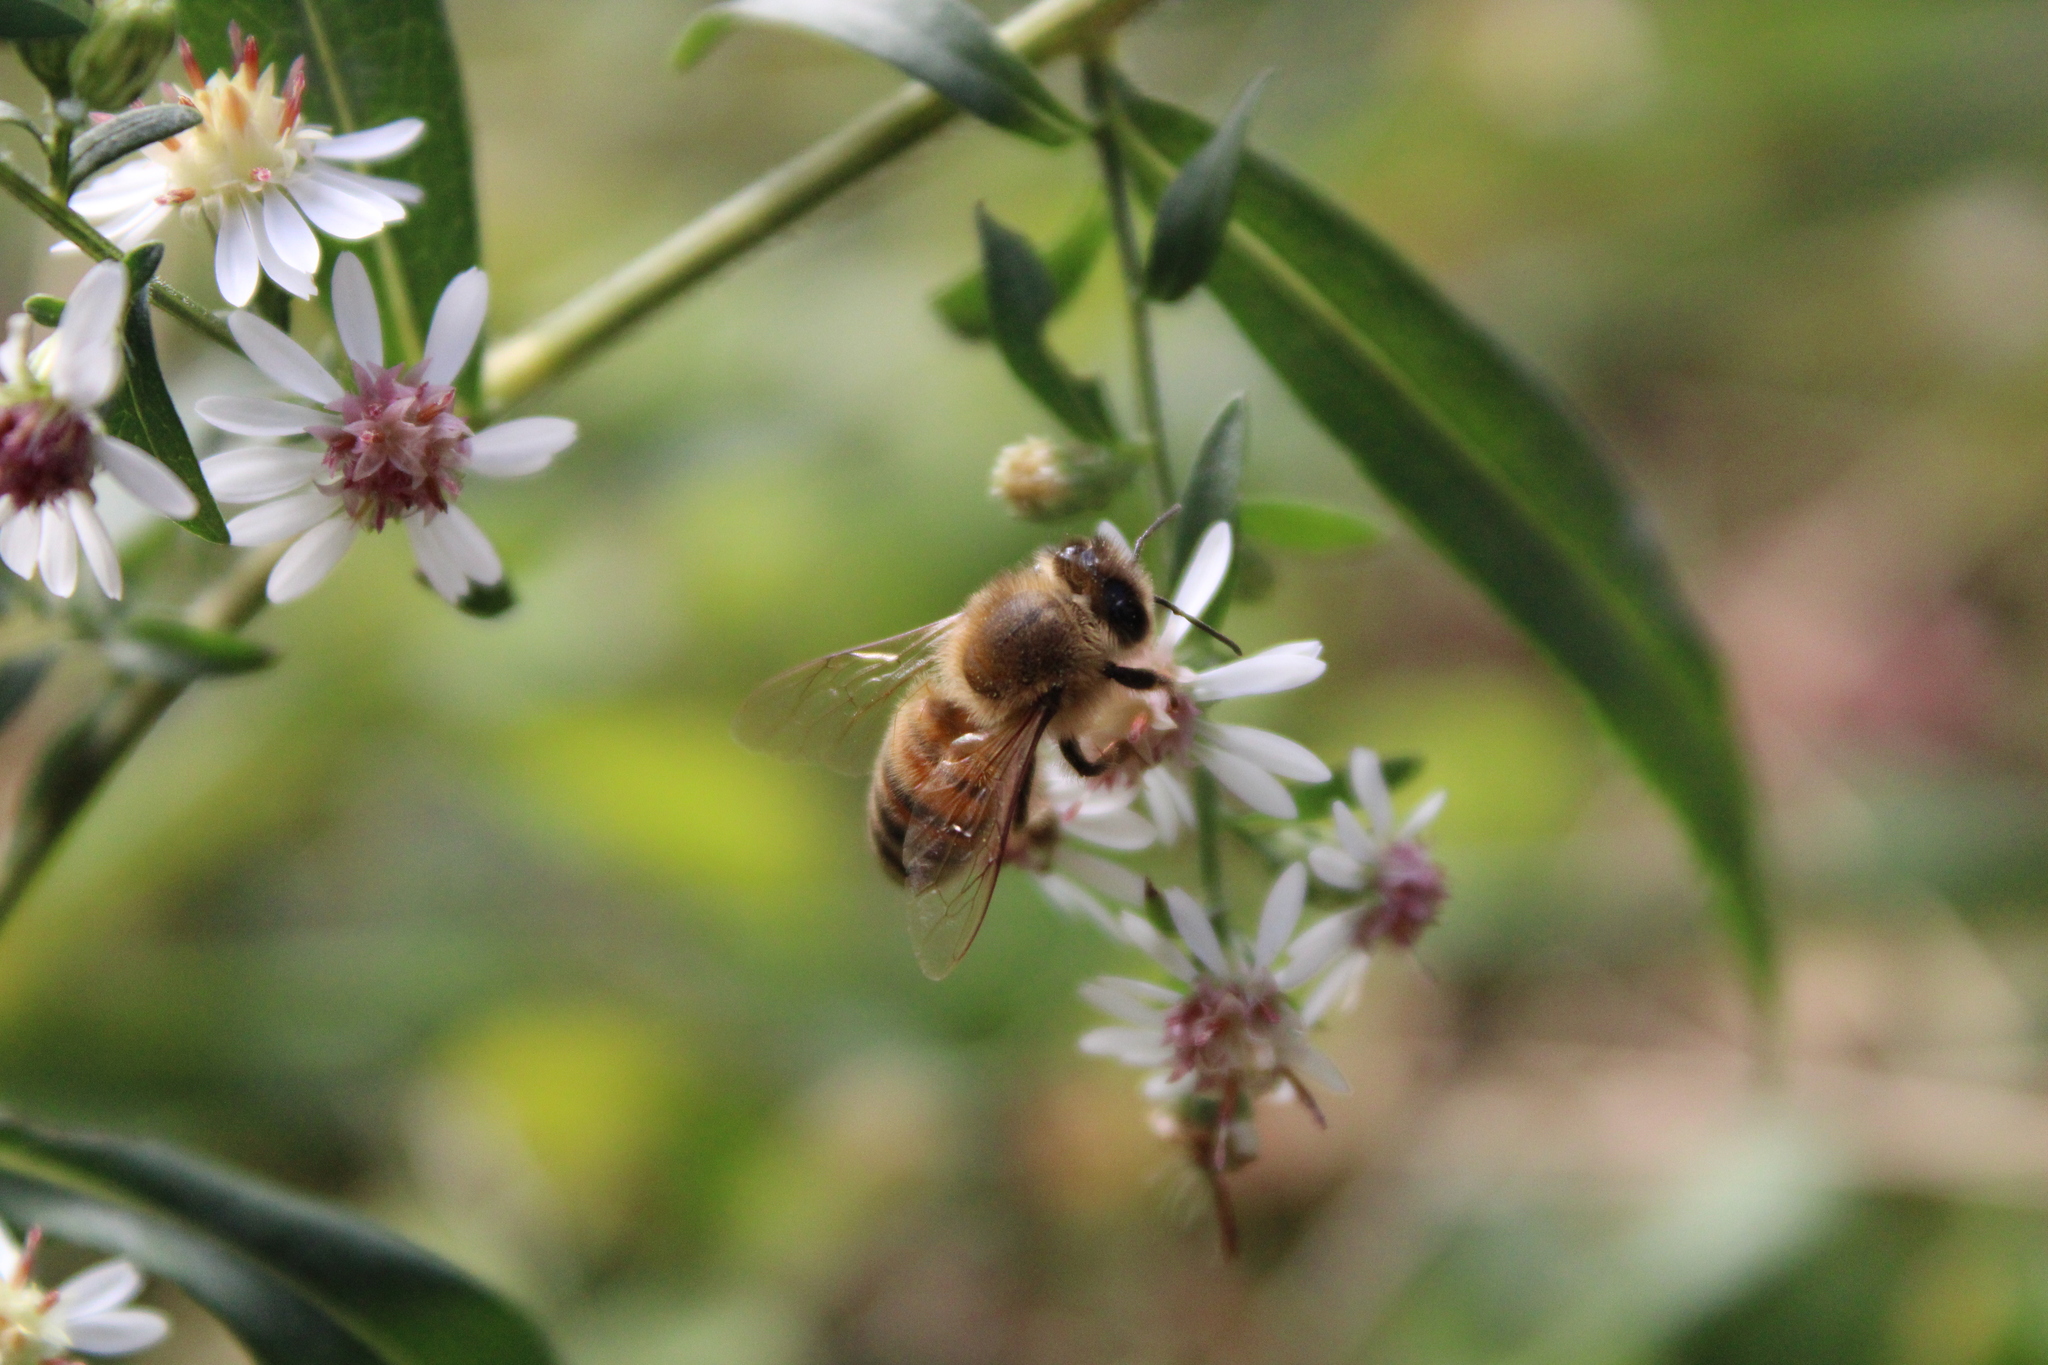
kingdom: Animalia
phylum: Arthropoda
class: Insecta
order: Hymenoptera
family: Apidae
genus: Apis
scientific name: Apis mellifera
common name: Honey bee
